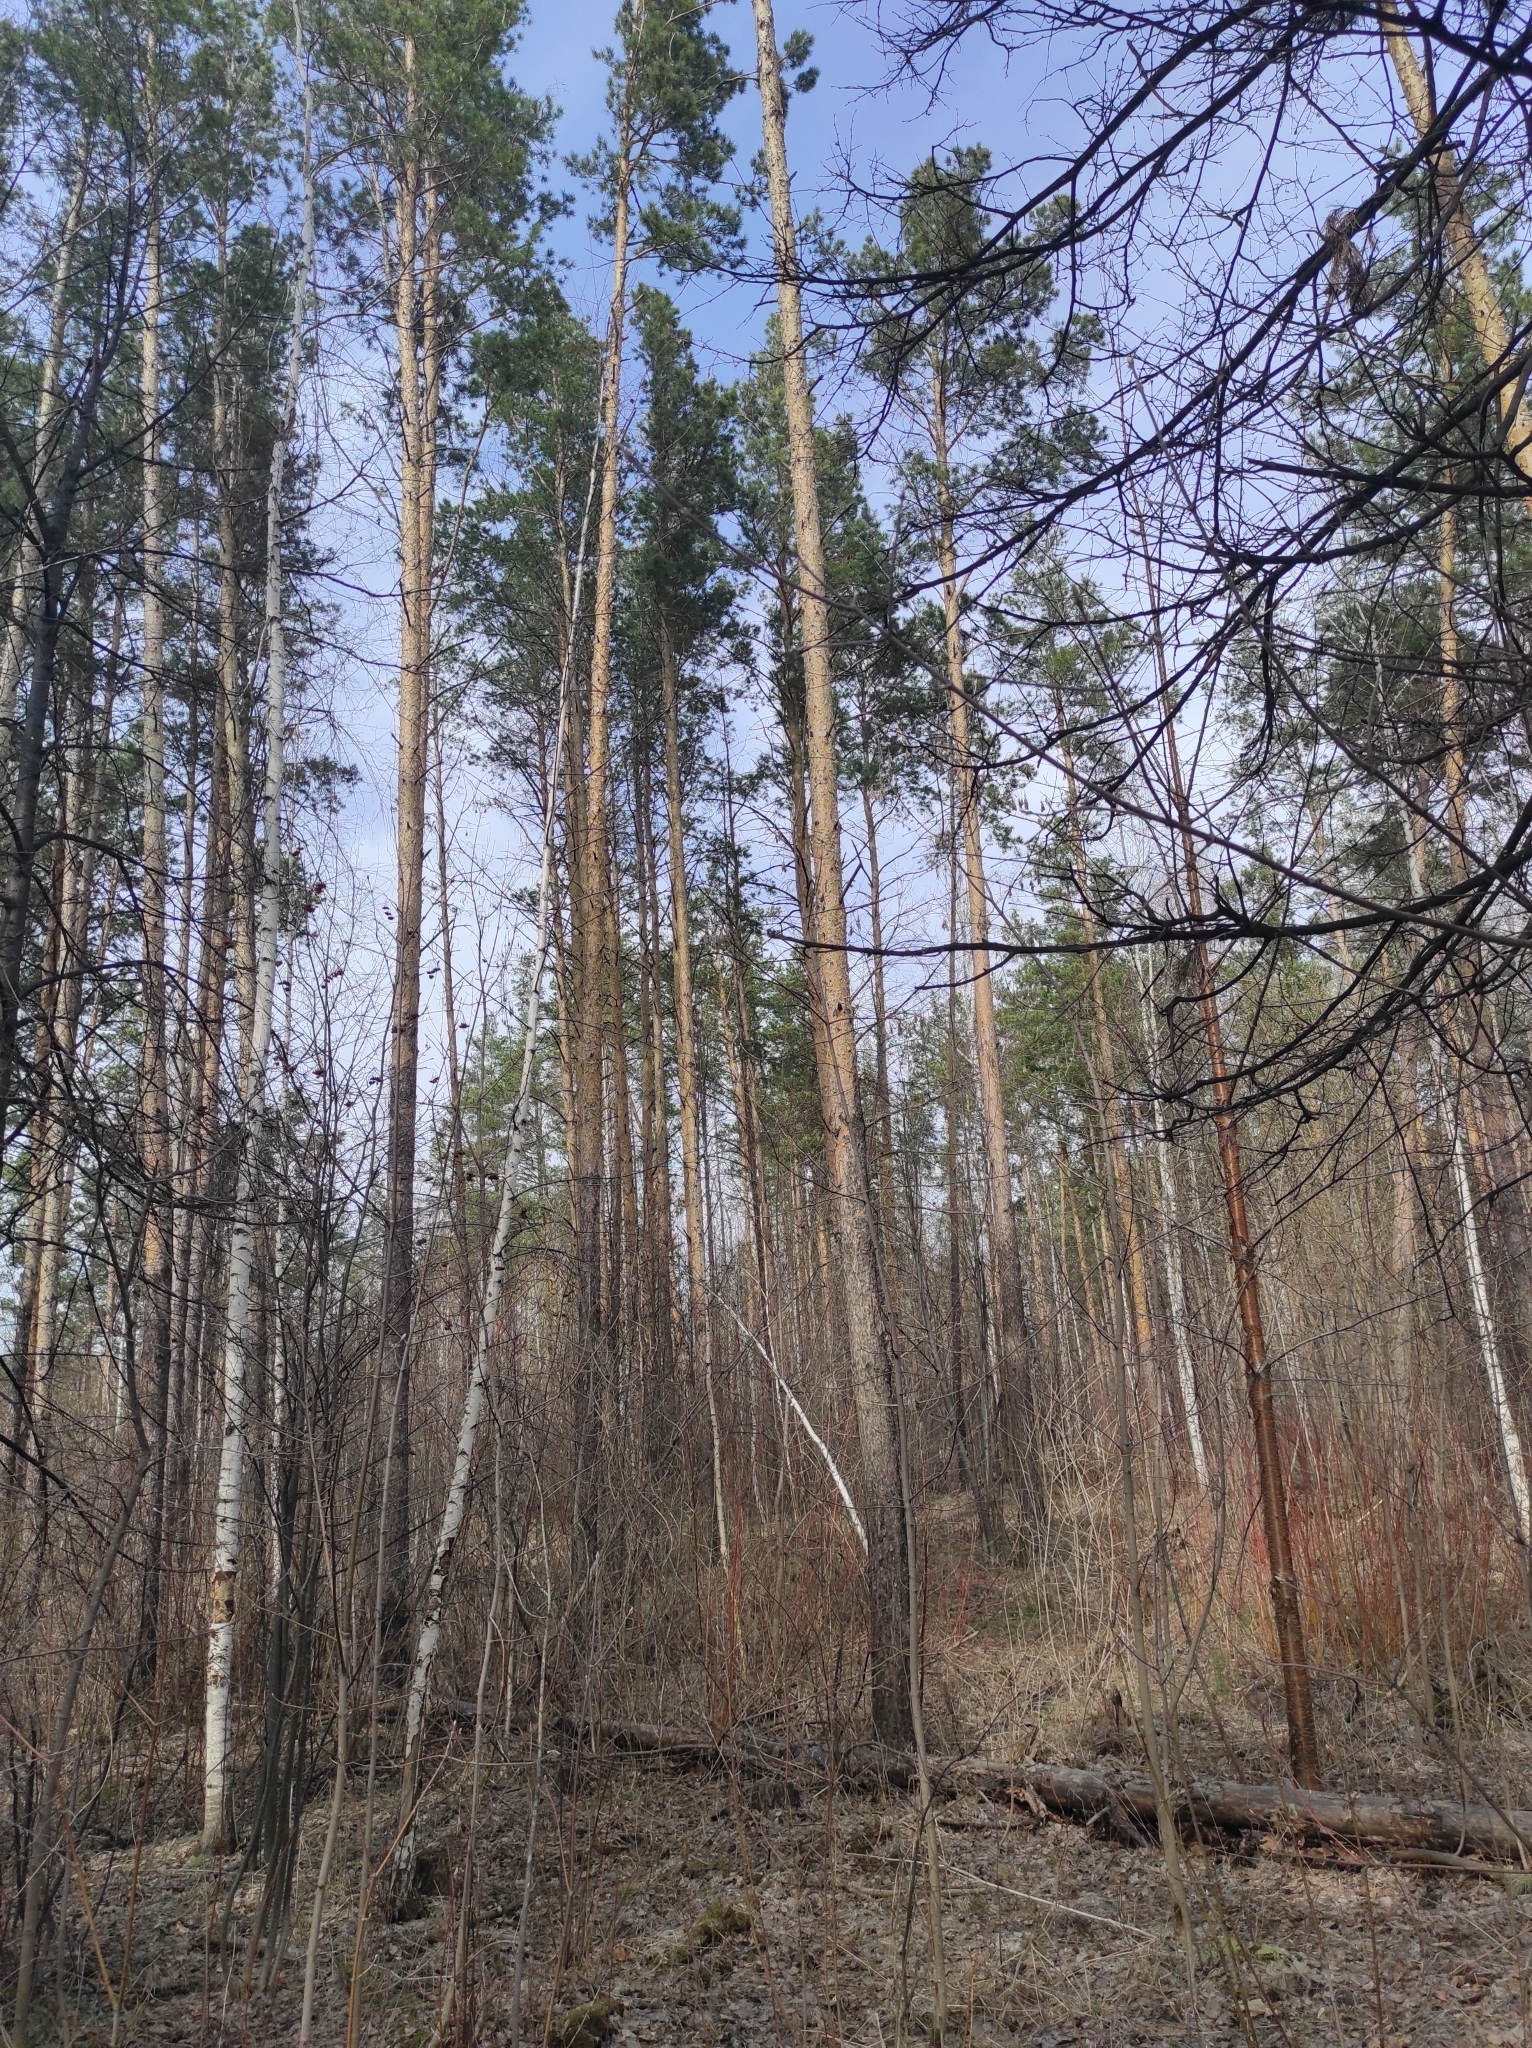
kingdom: Plantae
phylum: Tracheophyta
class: Pinopsida
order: Pinales
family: Pinaceae
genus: Pinus
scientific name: Pinus sylvestris
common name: Scots pine
